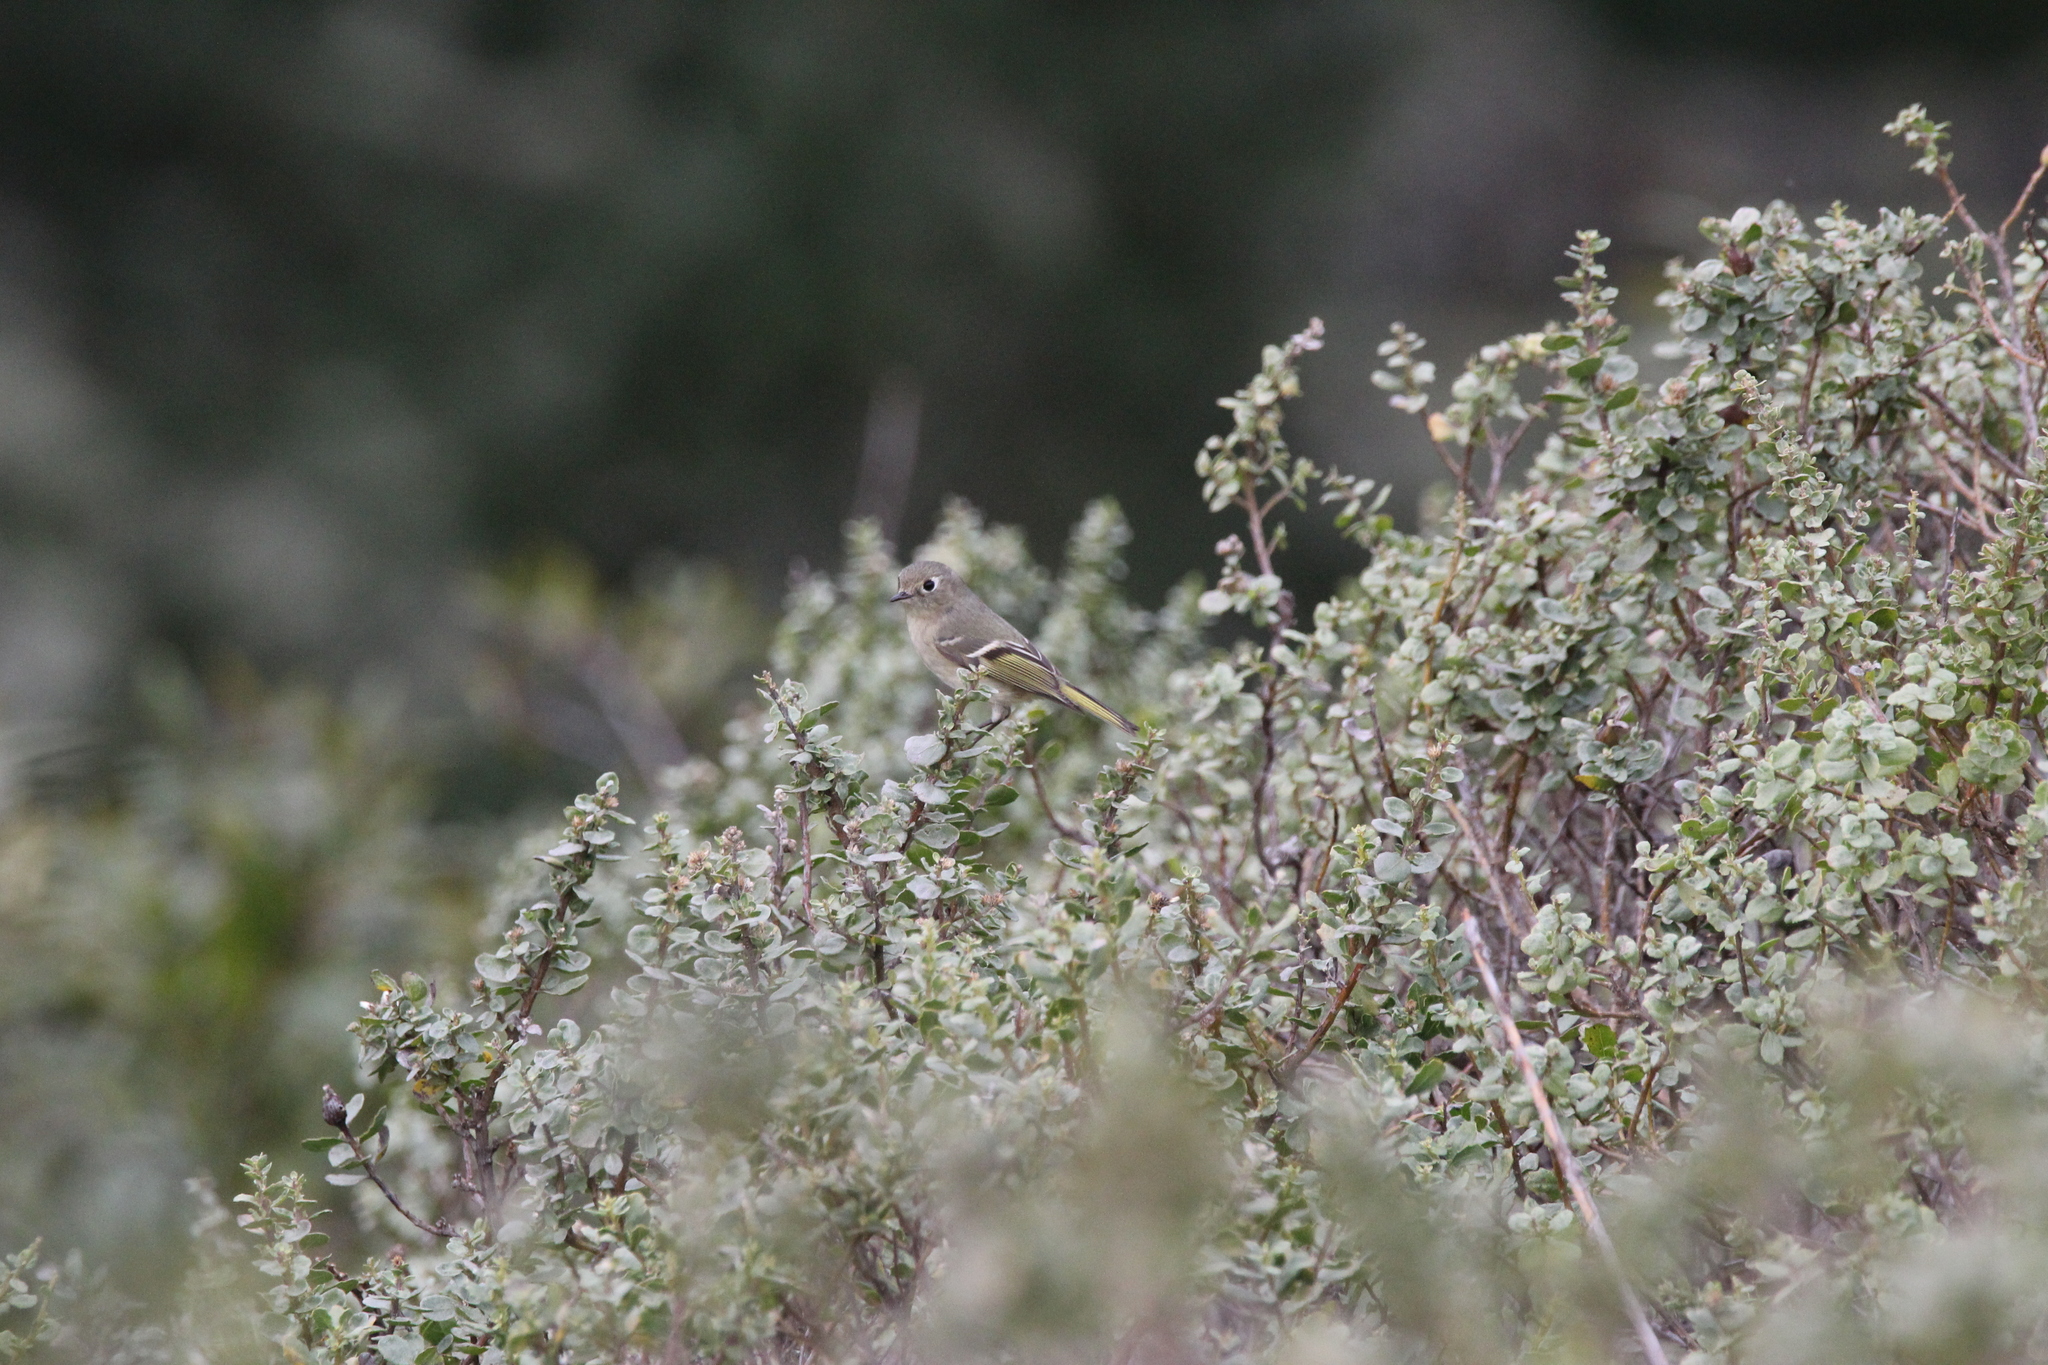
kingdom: Animalia
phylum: Chordata
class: Aves
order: Passeriformes
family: Regulidae
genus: Regulus
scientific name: Regulus calendula
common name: Ruby-crowned kinglet
